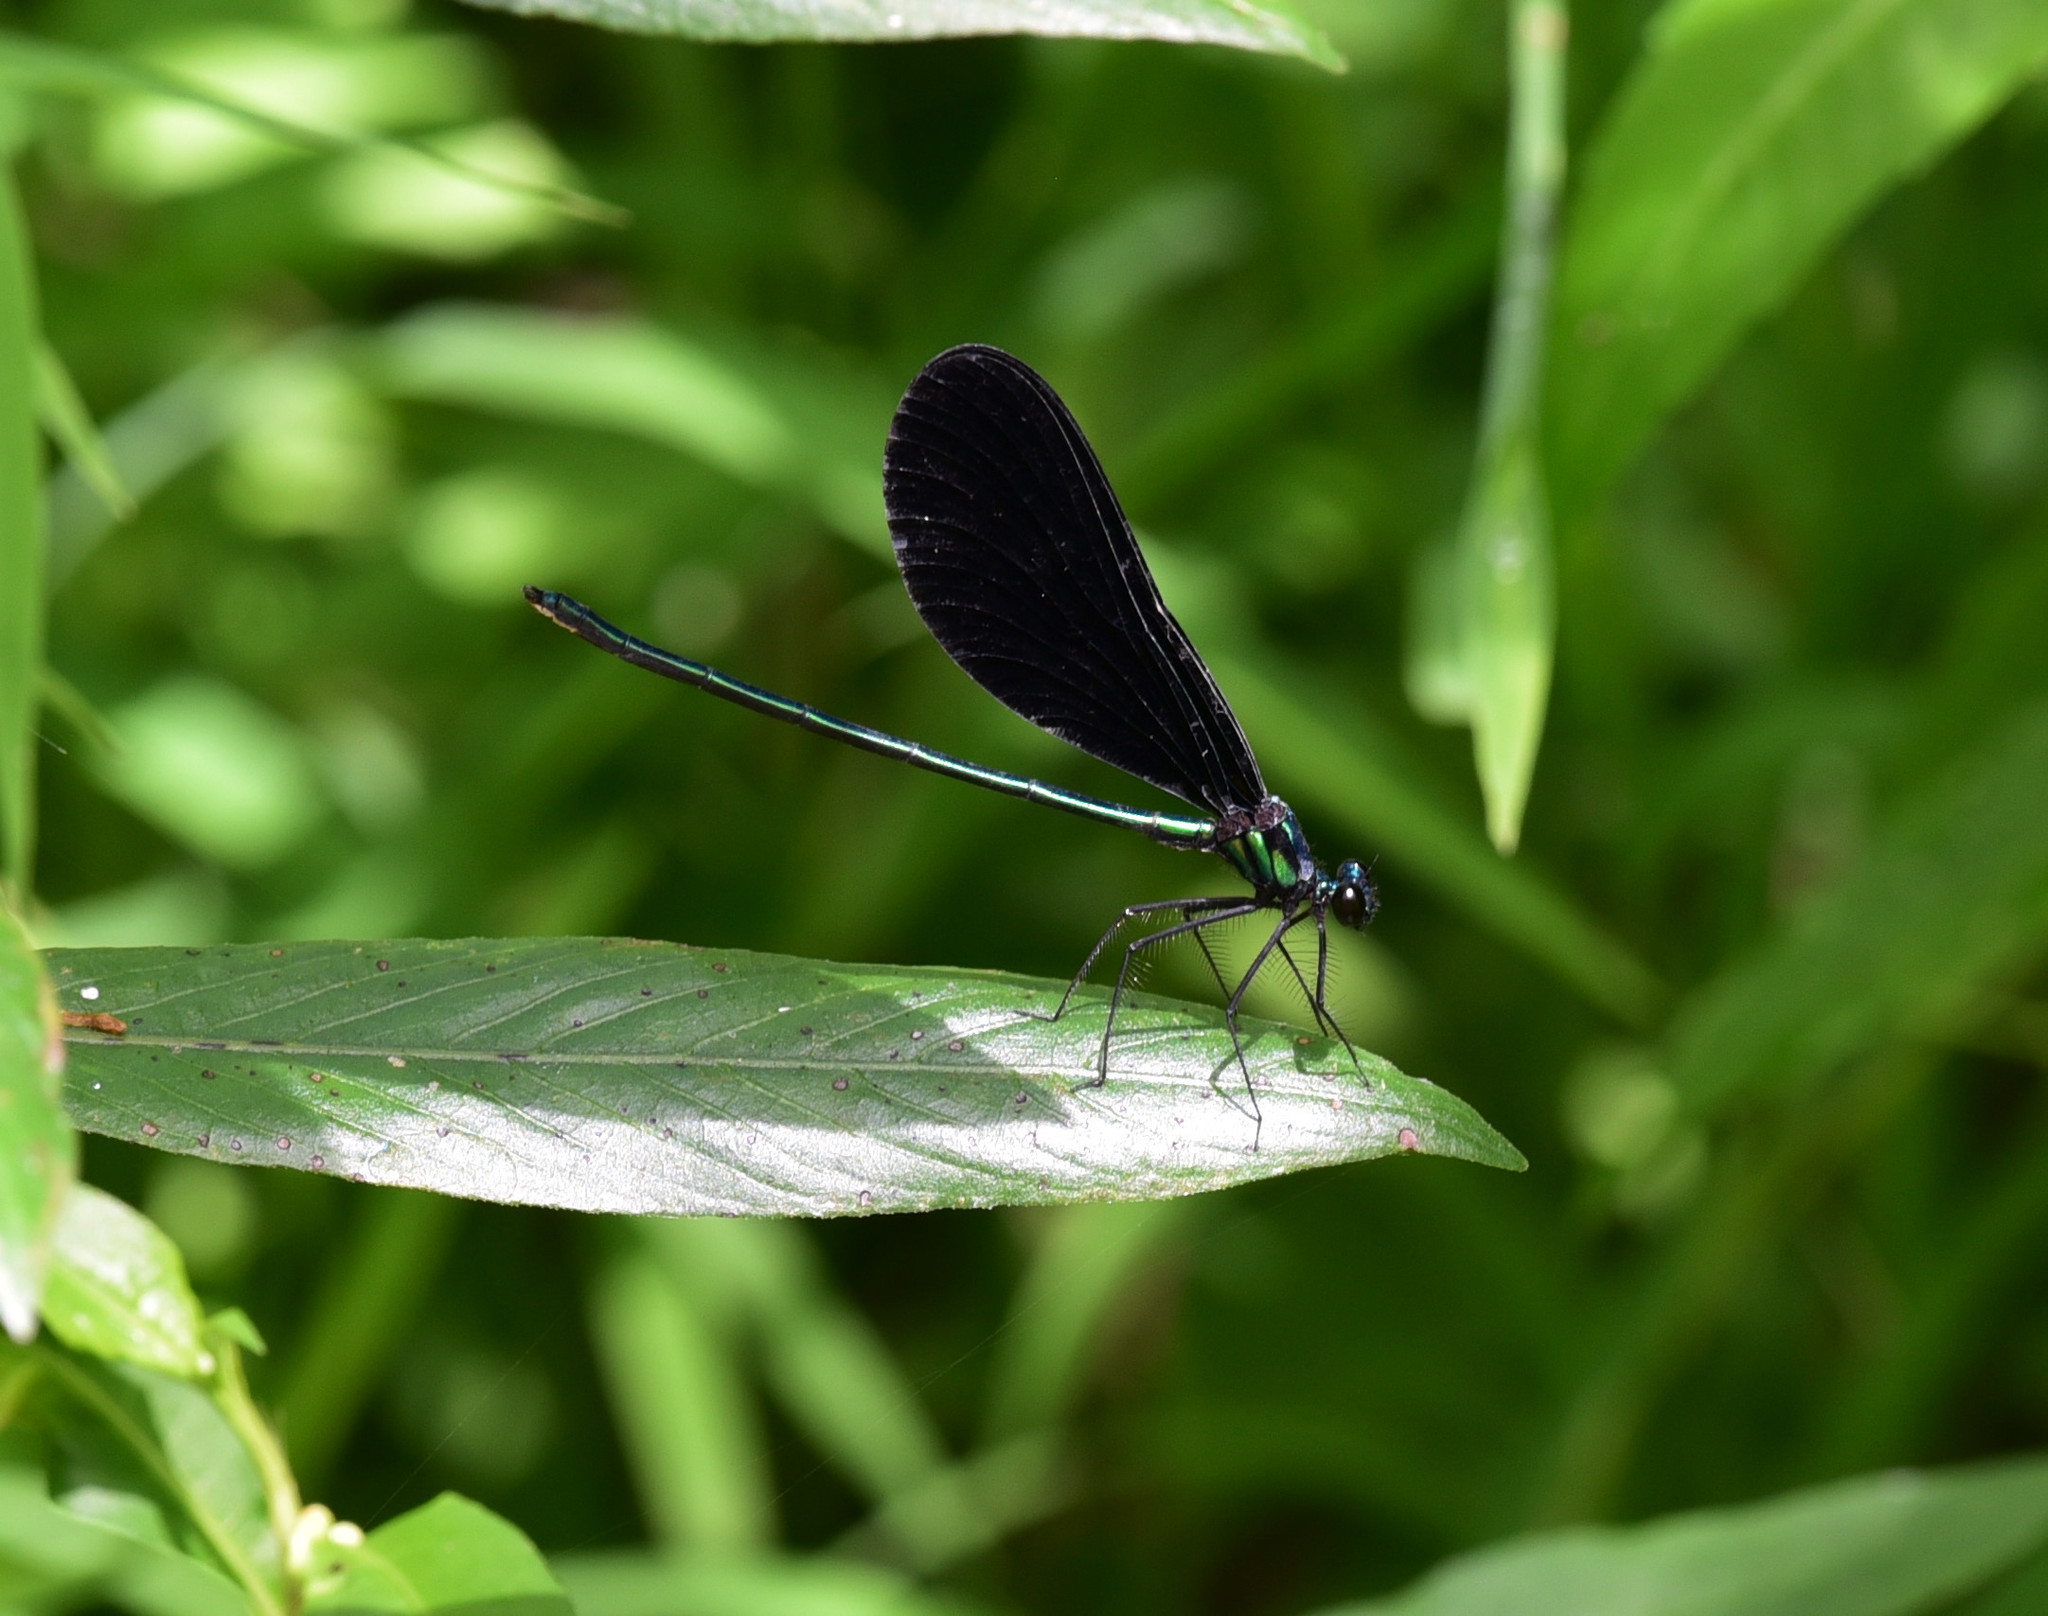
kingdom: Animalia
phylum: Arthropoda
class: Insecta
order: Odonata
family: Calopterygidae
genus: Calopteryx
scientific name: Calopteryx maculata
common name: Ebony jewelwing
